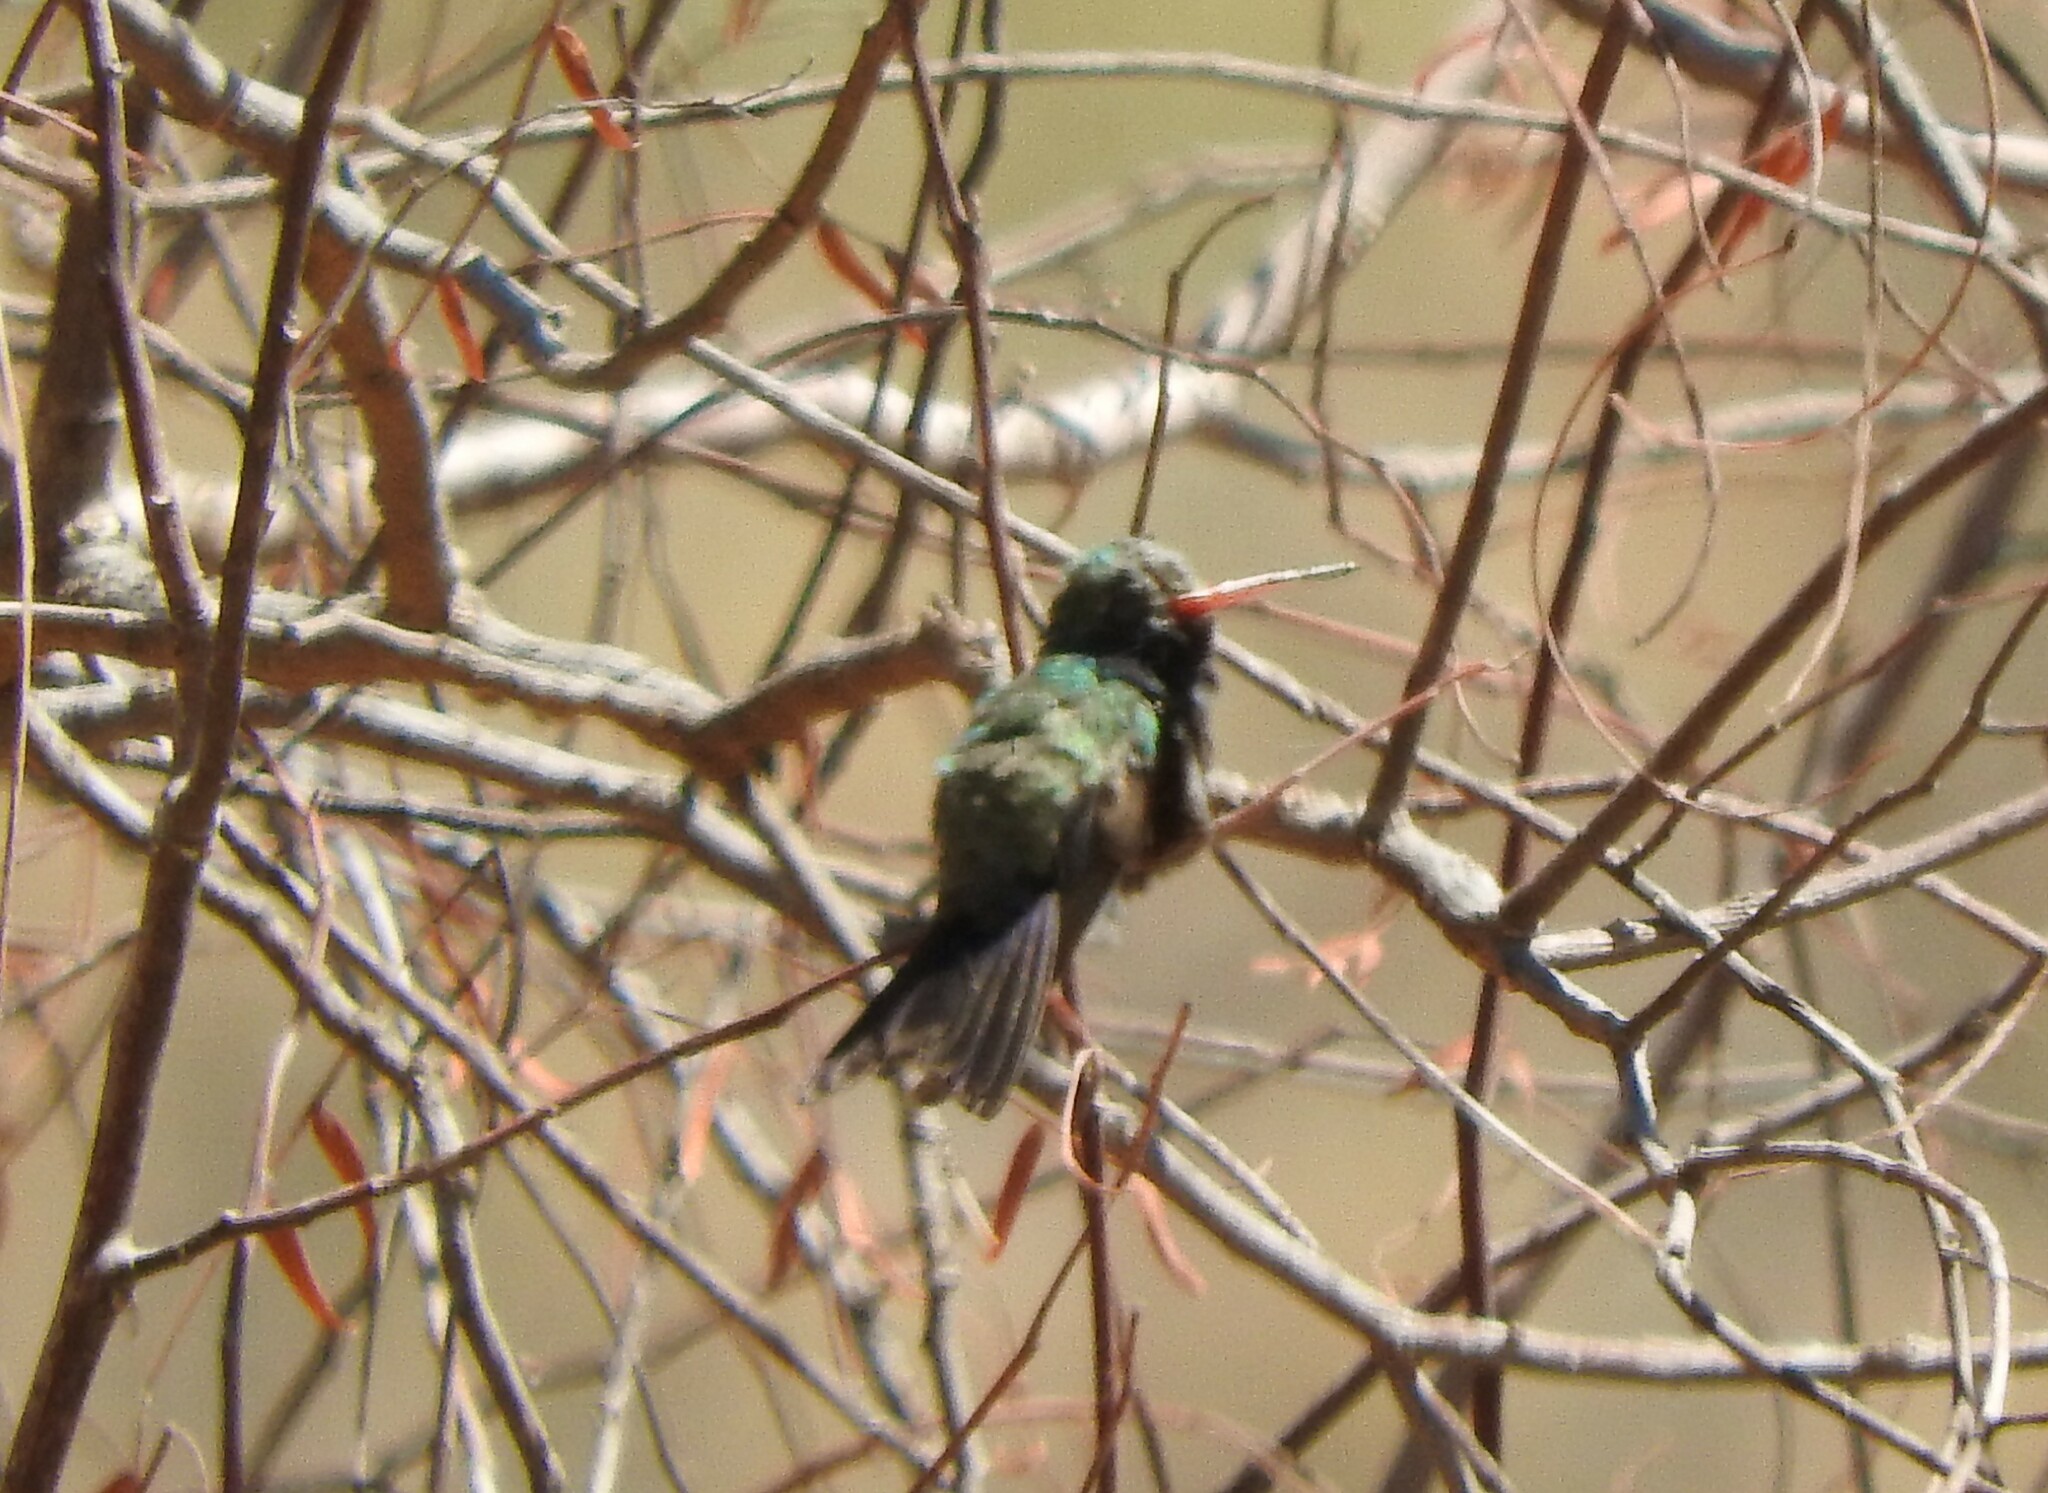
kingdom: Animalia
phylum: Chordata
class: Aves
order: Apodiformes
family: Trochilidae
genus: Cynanthus
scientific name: Cynanthus latirostris
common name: Broad-billed hummingbird
